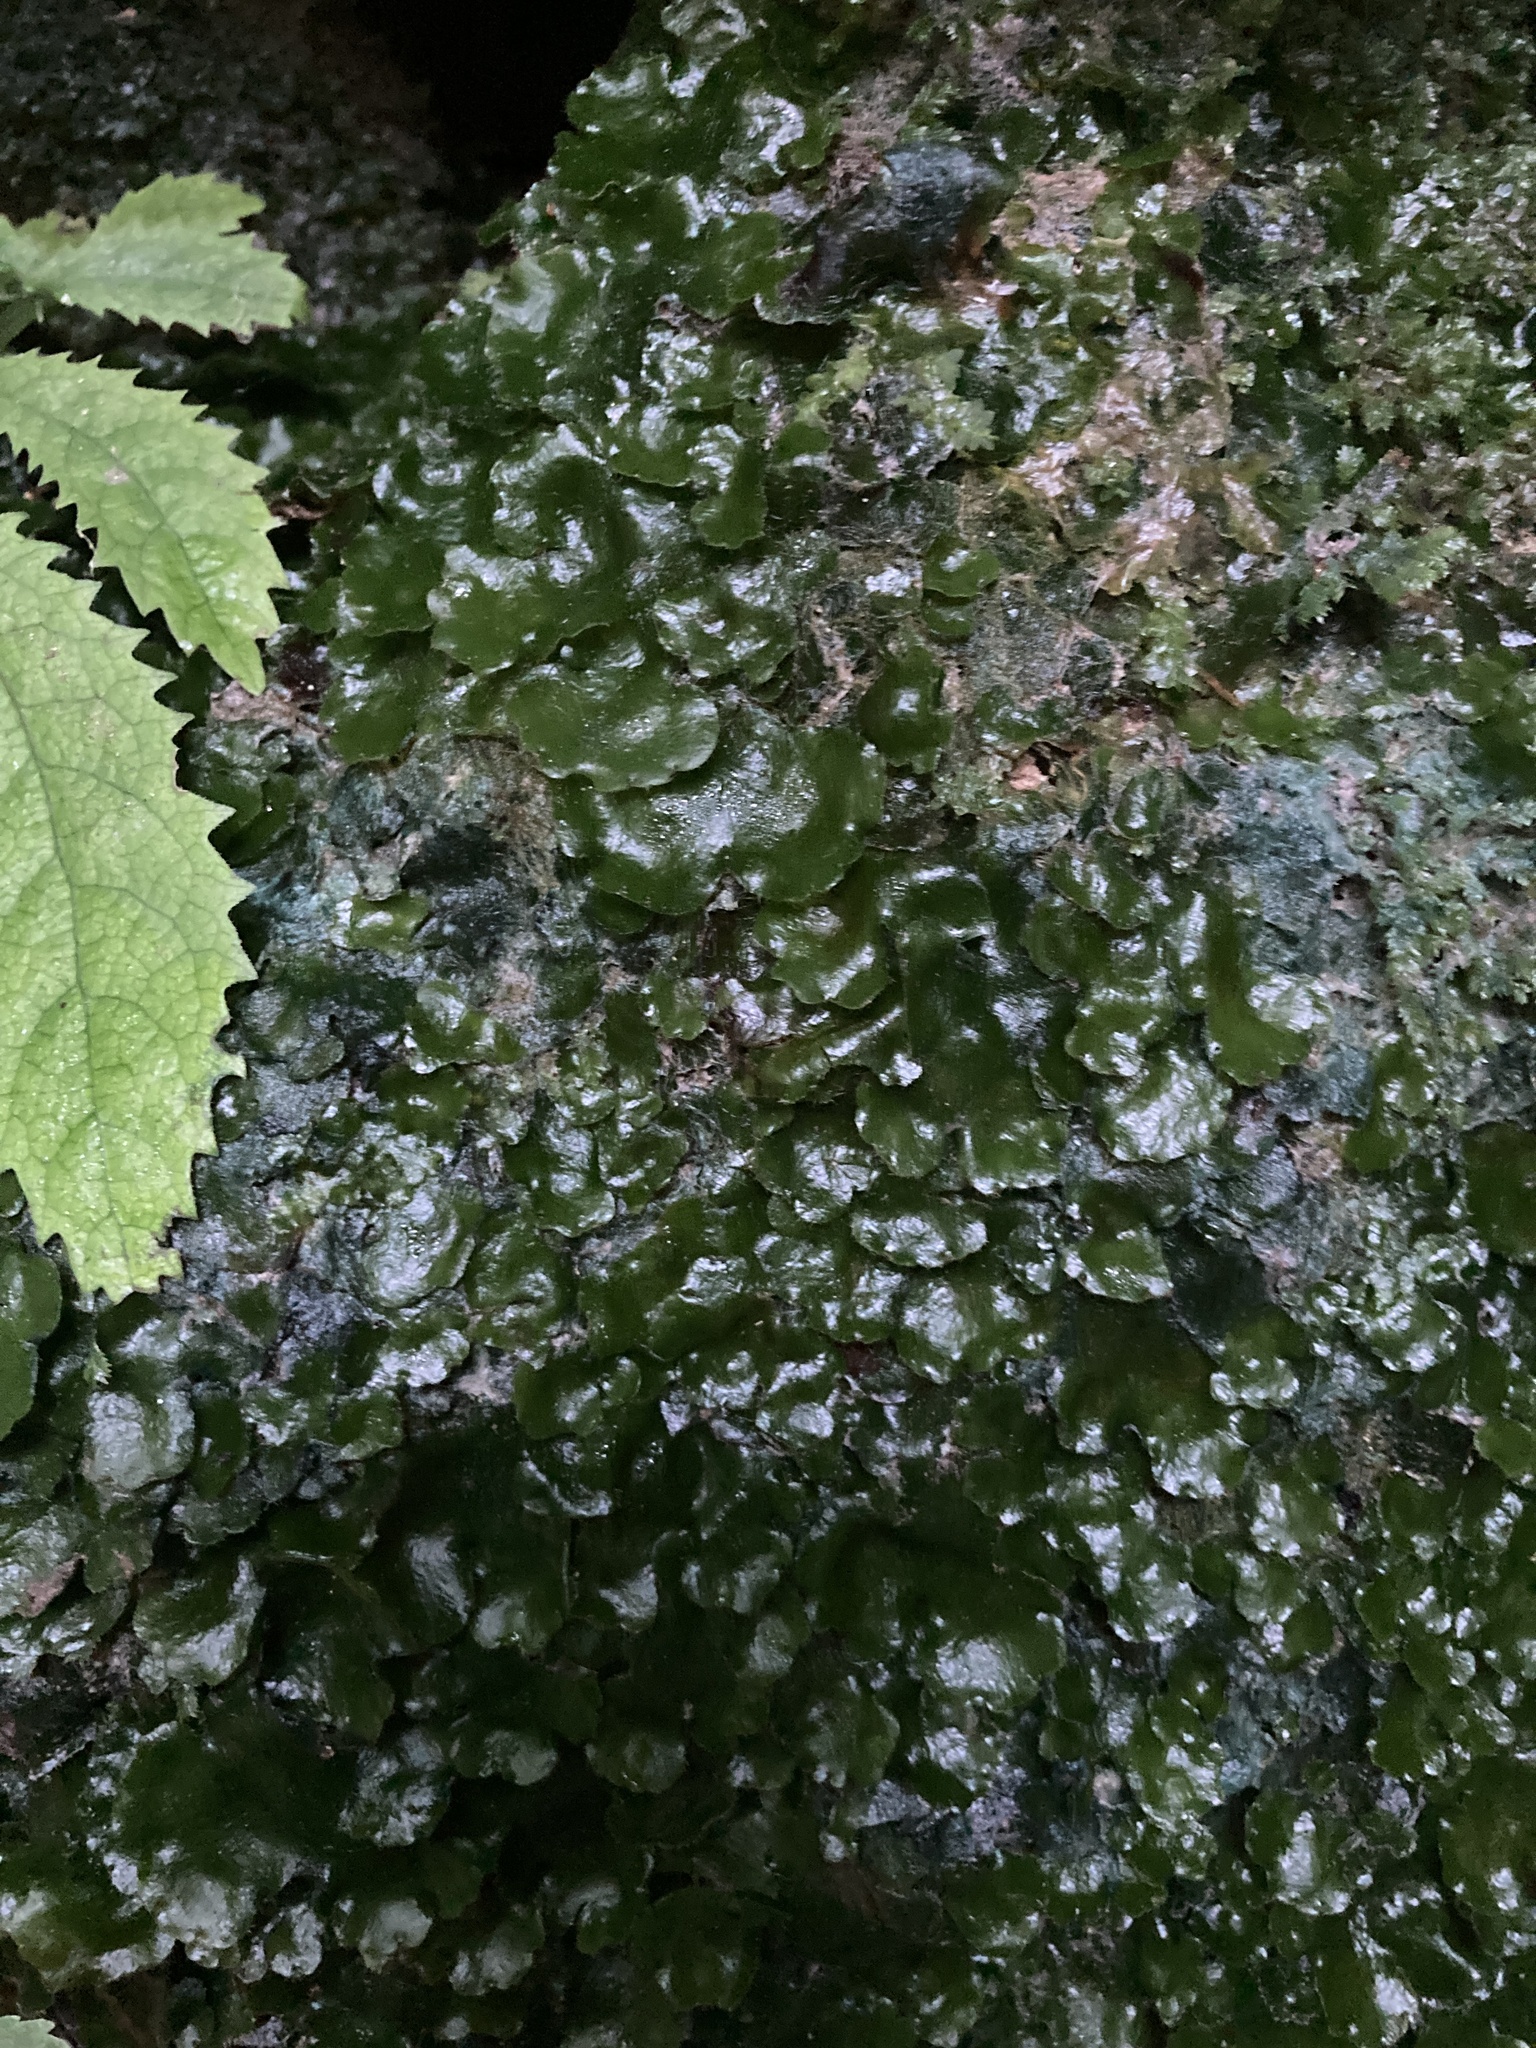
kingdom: Plantae
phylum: Marchantiophyta
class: Marchantiopsida
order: Marchantiales
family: Monocleaceae
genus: Monoclea
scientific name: Monoclea forsteri
